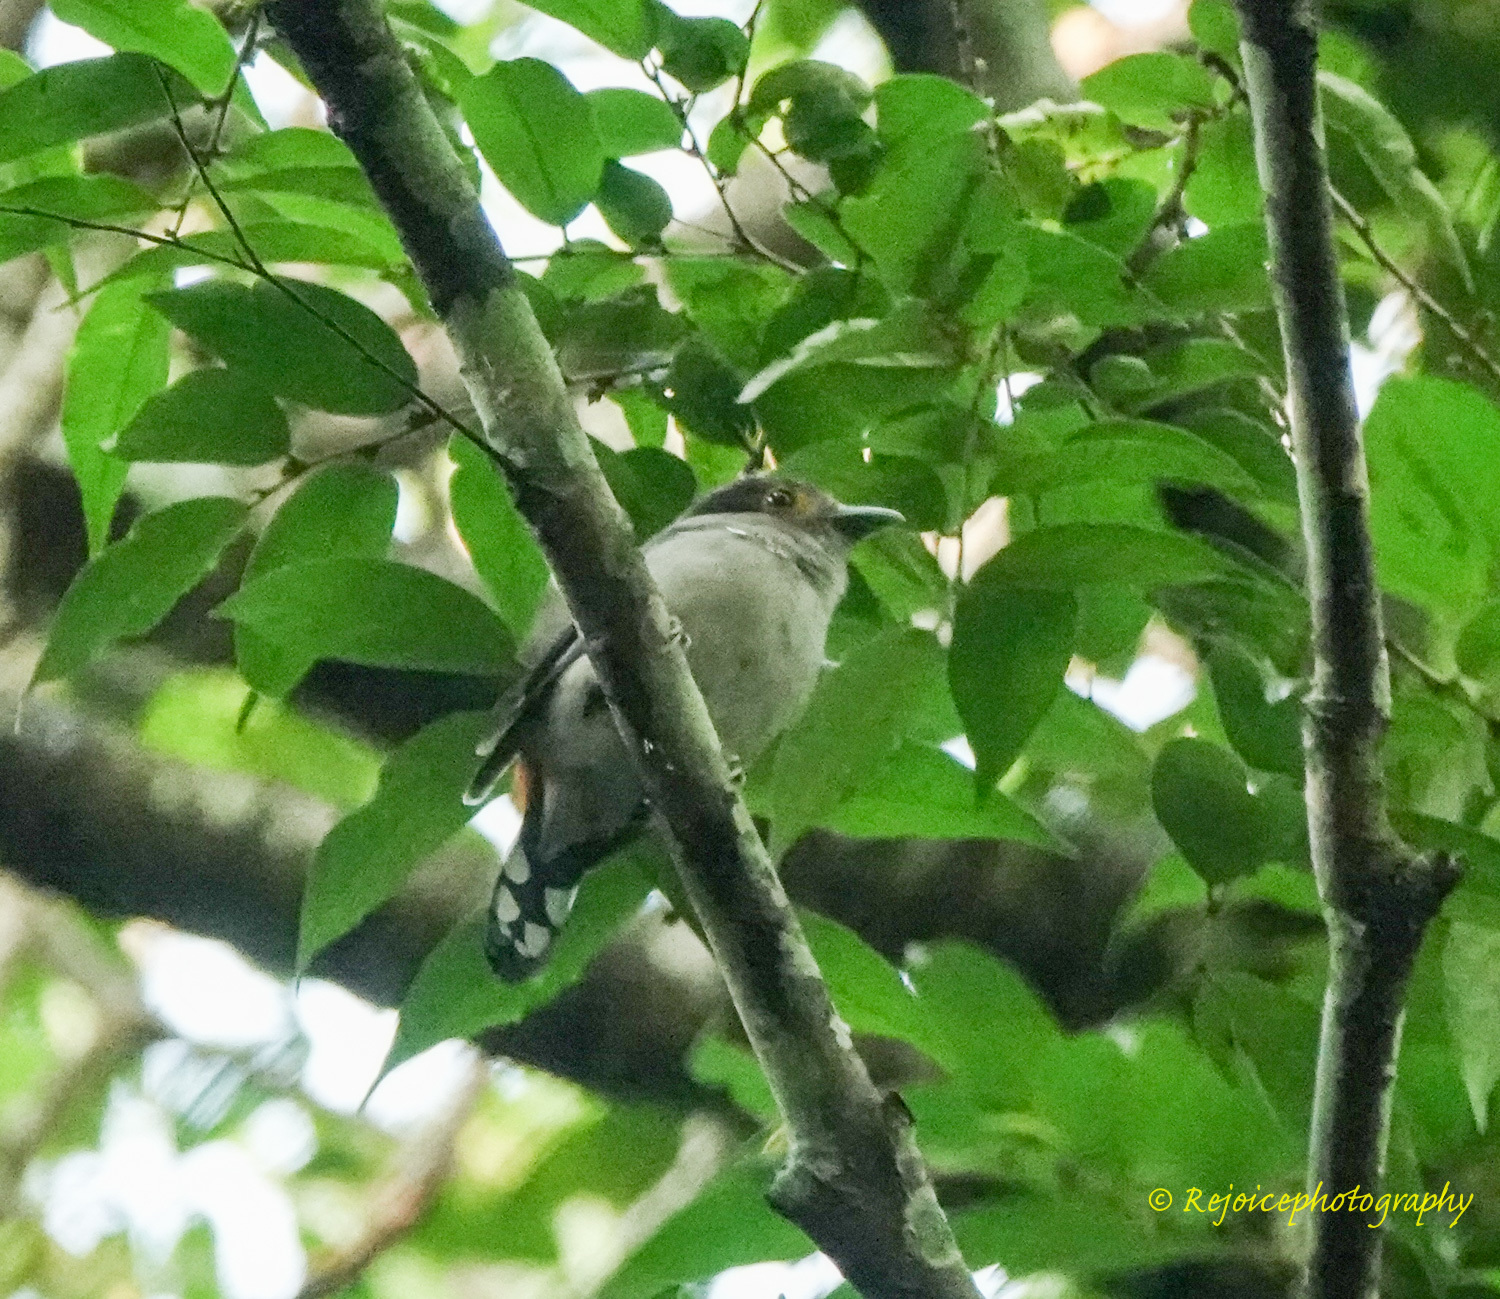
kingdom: Animalia
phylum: Chordata
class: Aves
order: Passeriformes
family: Eurylaimidae
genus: Serilophus
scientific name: Serilophus lunatus
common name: Silver-breasted broadbill
